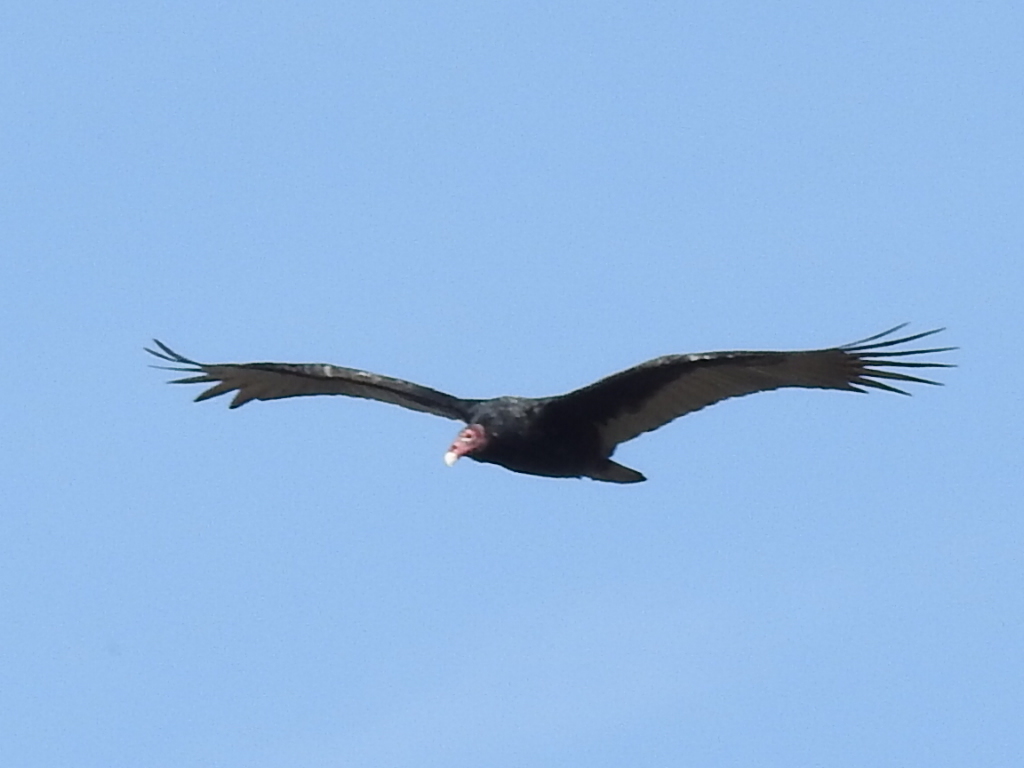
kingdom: Animalia
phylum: Chordata
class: Aves
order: Accipitriformes
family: Cathartidae
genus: Cathartes
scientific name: Cathartes aura
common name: Turkey vulture
